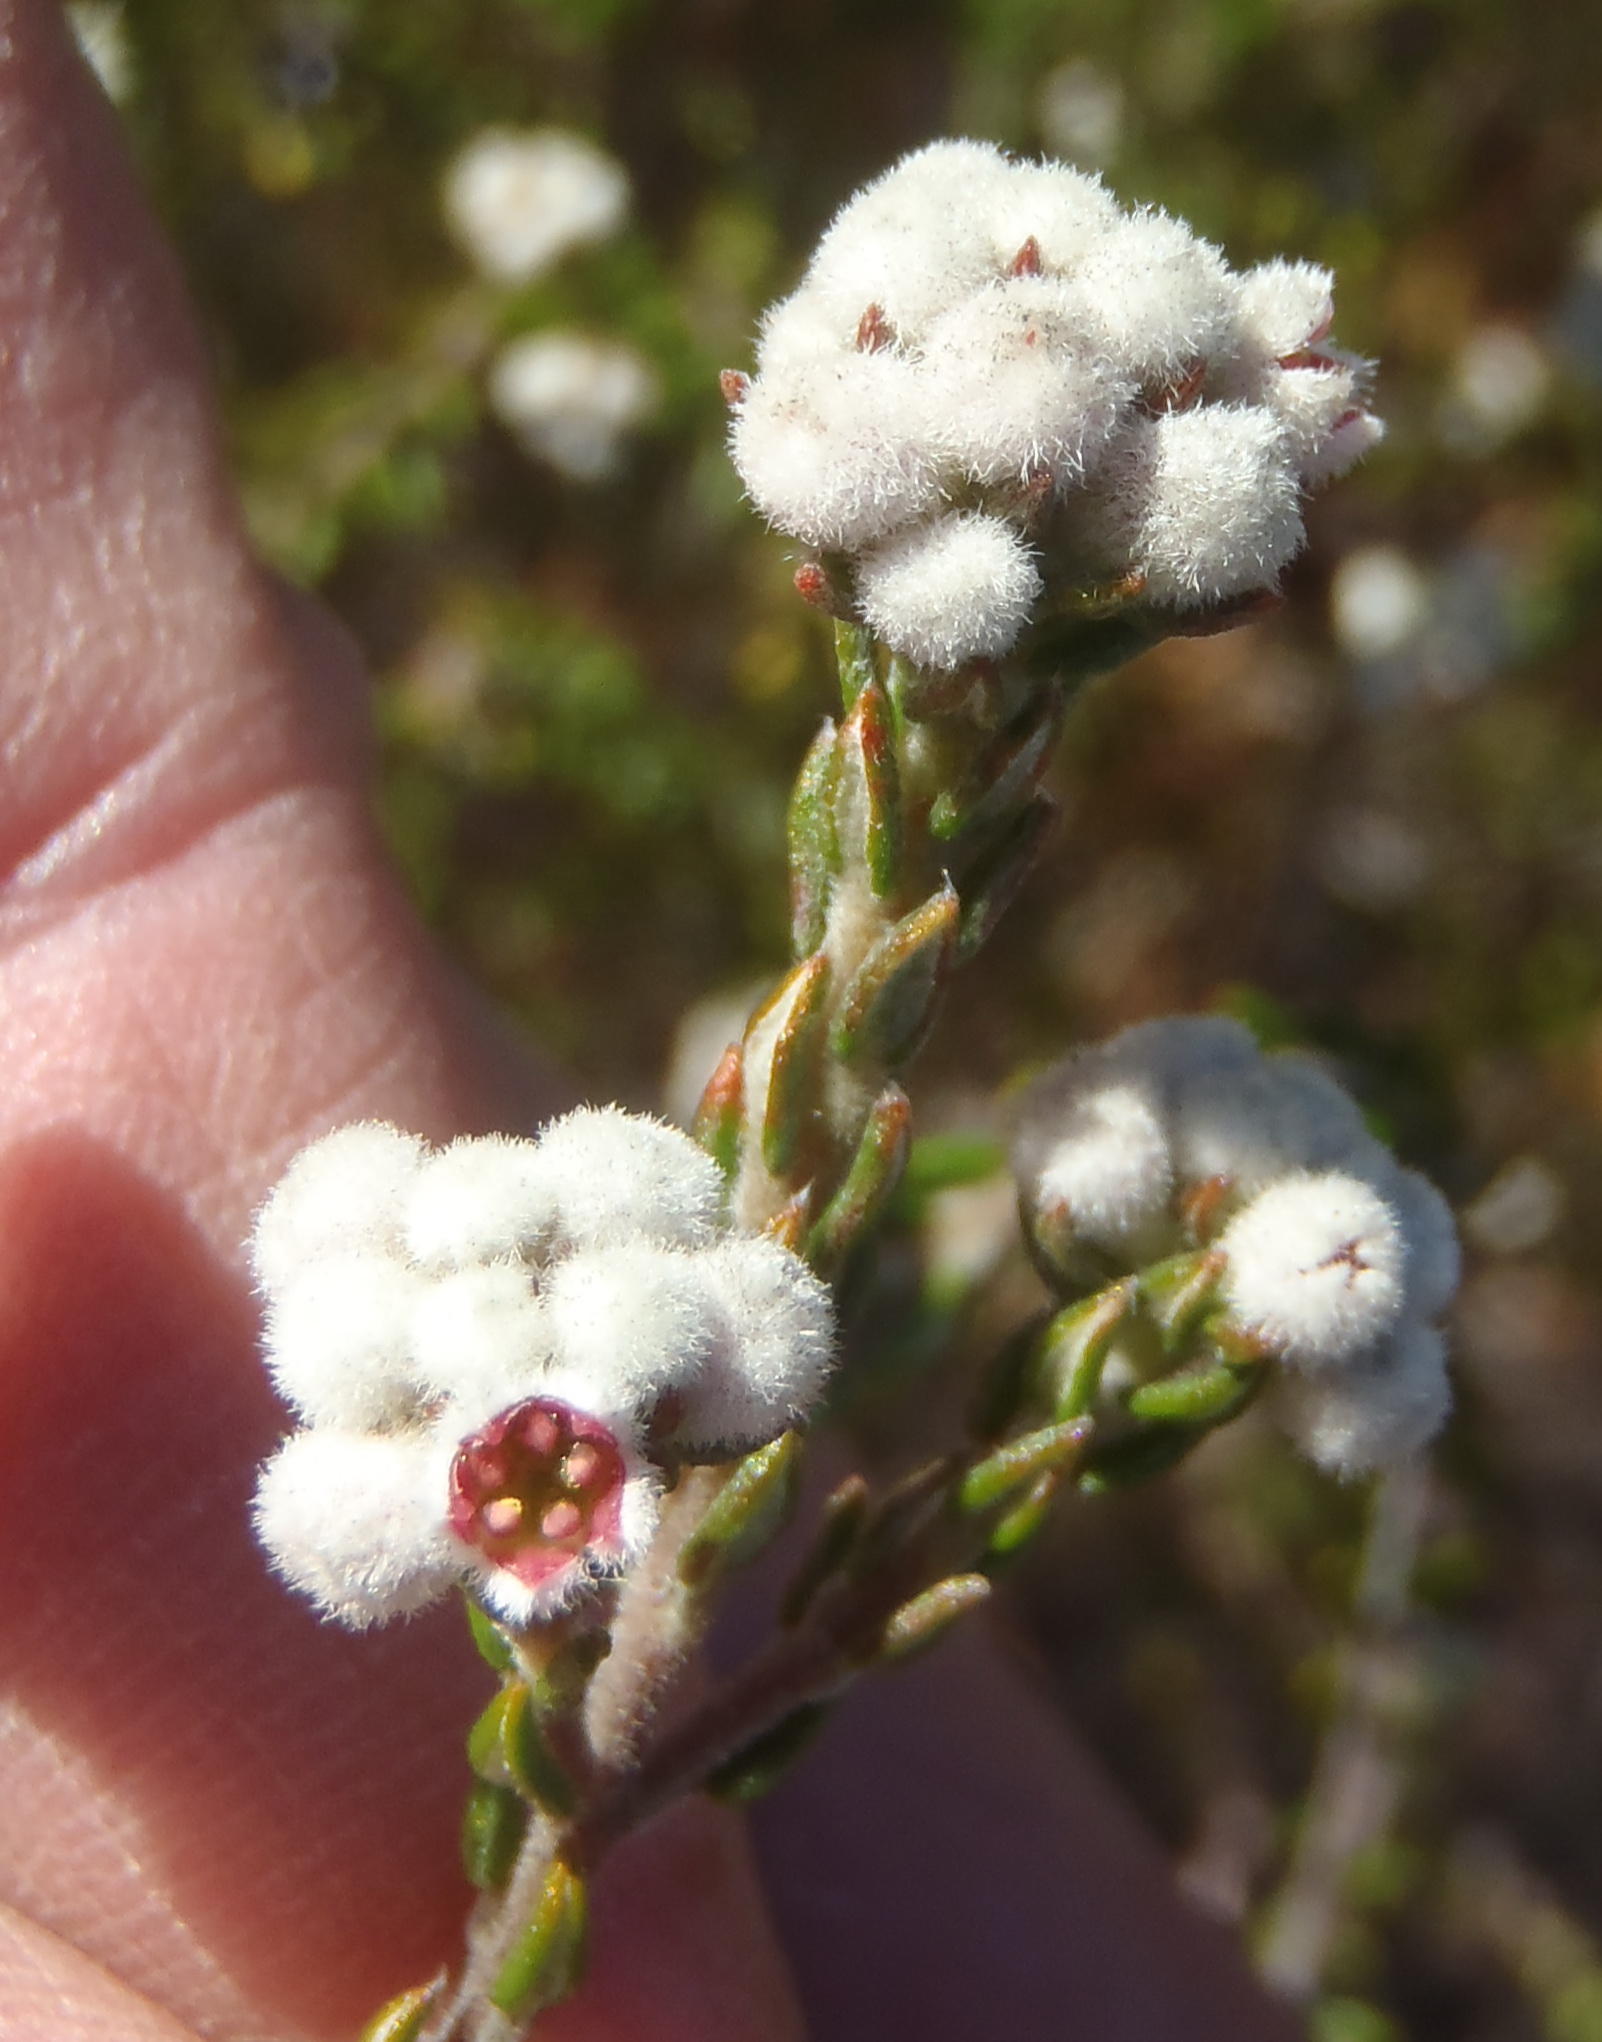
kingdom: Plantae
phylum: Tracheophyta
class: Magnoliopsida
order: Rosales
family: Rhamnaceae
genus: Phylica
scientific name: Phylica lanata
